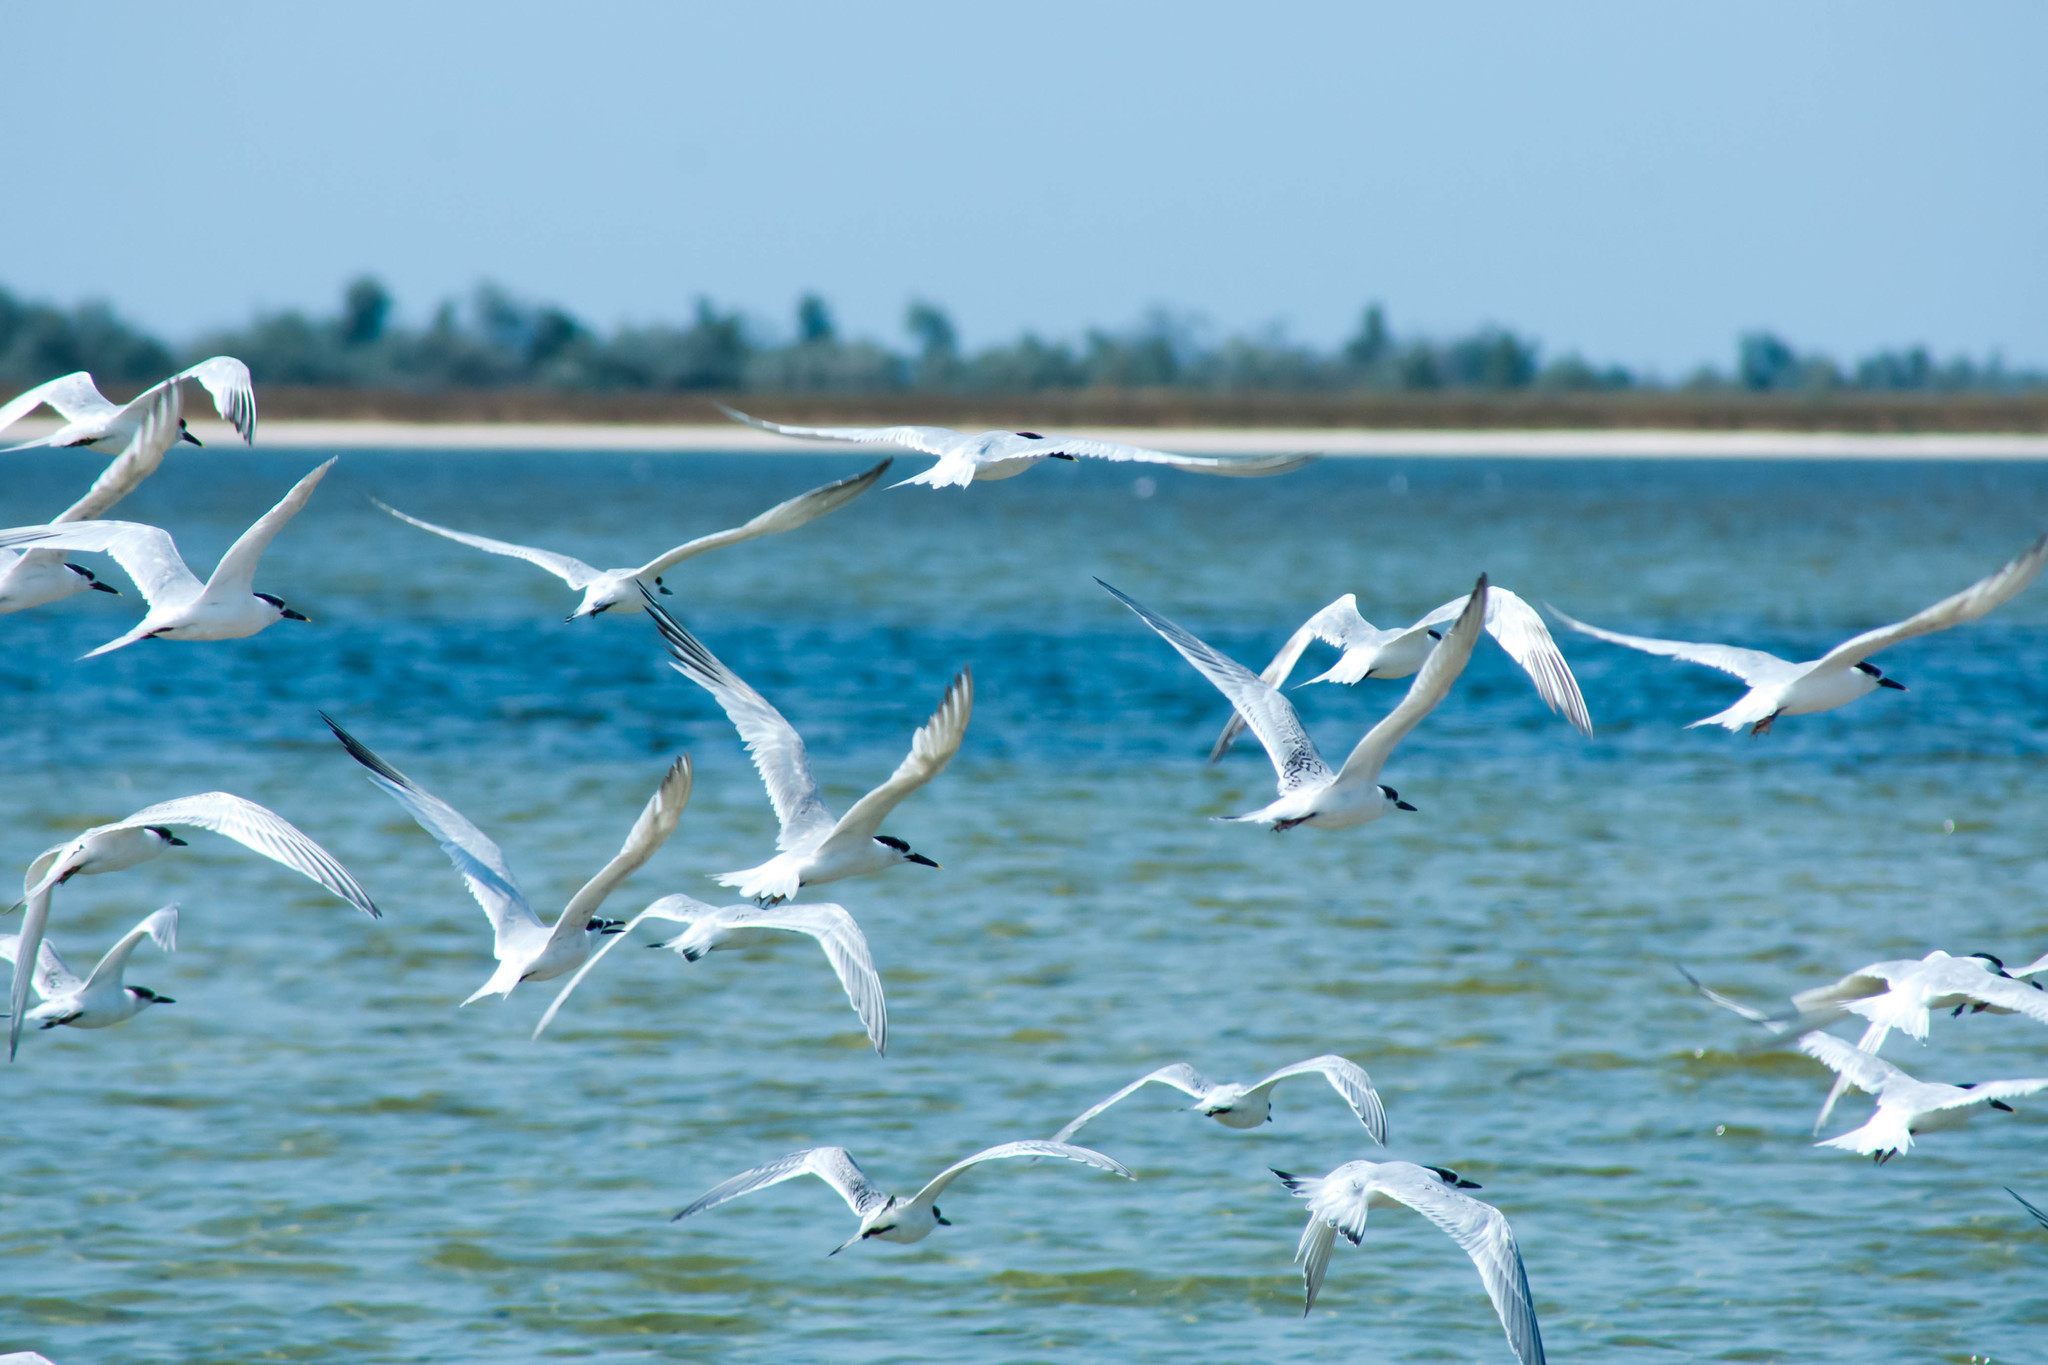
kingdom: Animalia
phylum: Chordata
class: Aves
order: Charadriiformes
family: Laridae
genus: Gelochelidon
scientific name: Gelochelidon nilotica
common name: Gull-billed tern
